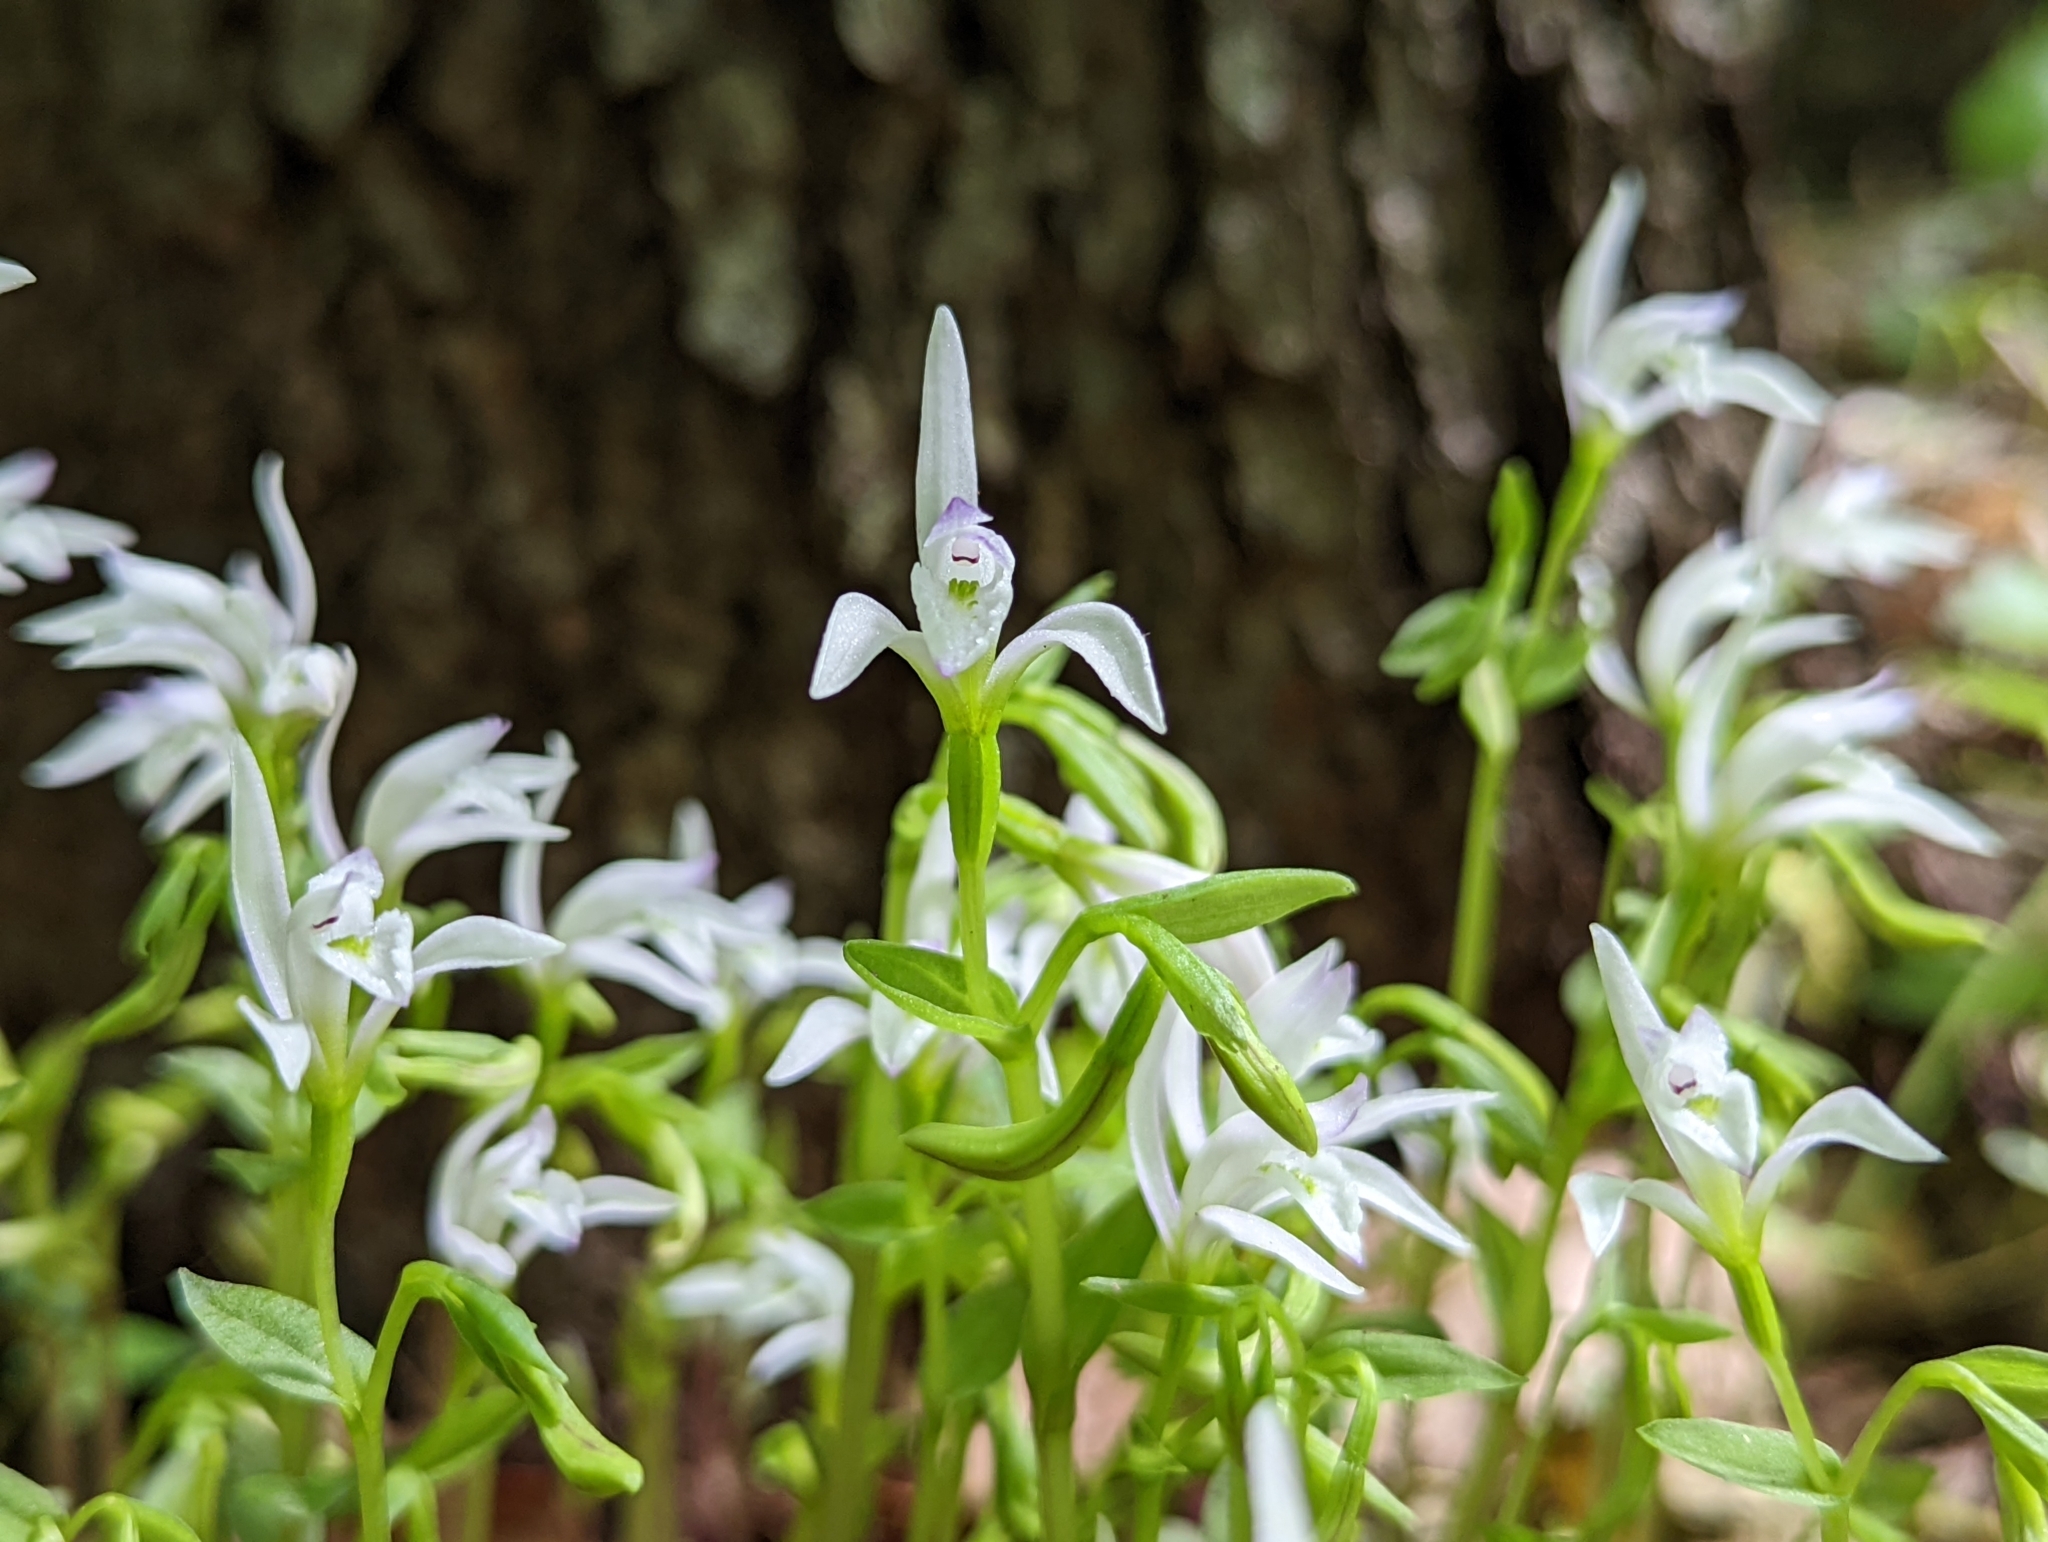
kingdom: Plantae
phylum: Tracheophyta
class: Liliopsida
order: Asparagales
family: Orchidaceae
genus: Triphora
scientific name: Triphora trianthophoros
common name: Three birds orchid
